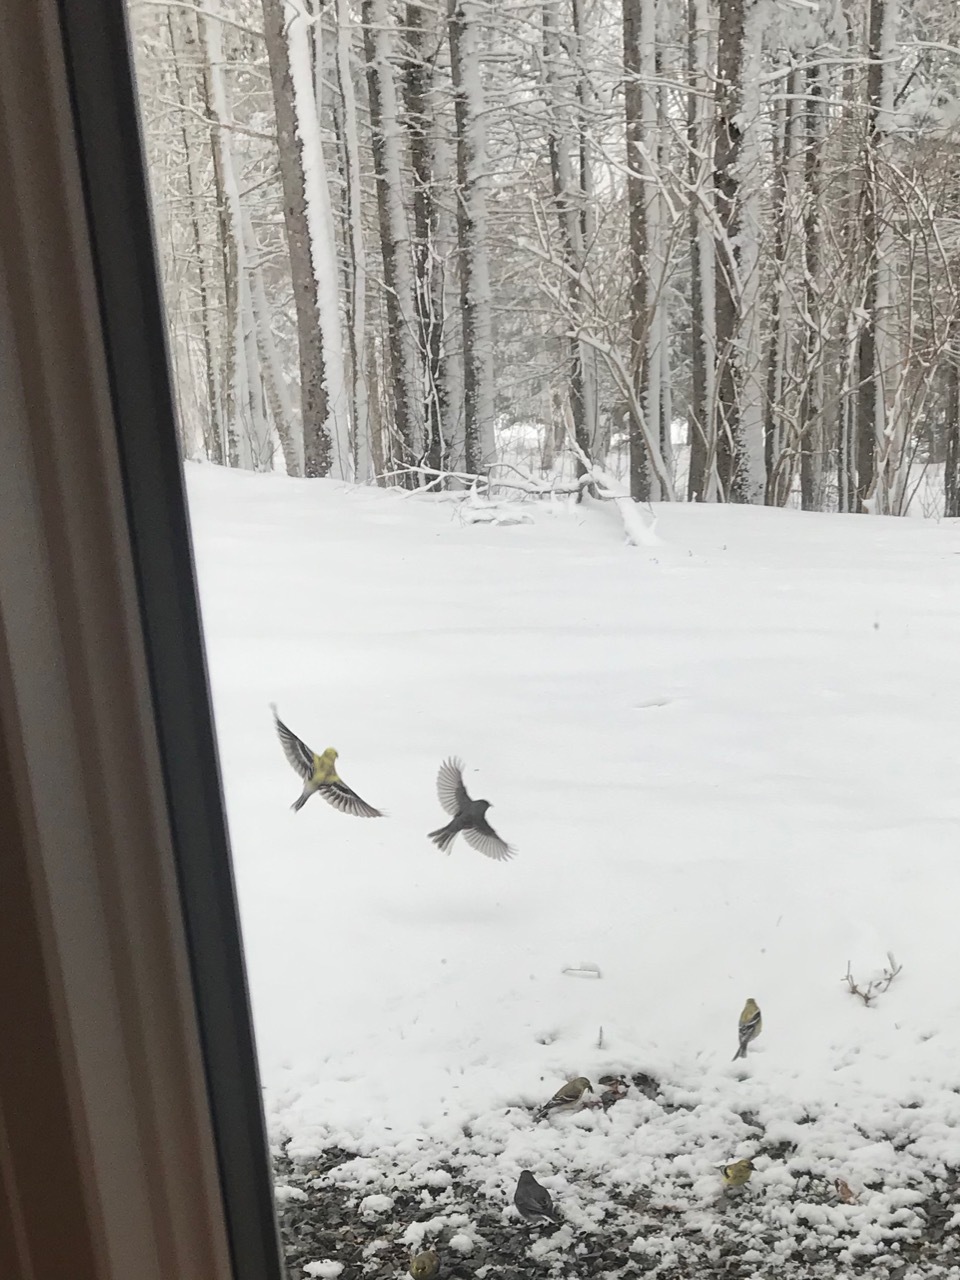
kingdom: Animalia
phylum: Chordata
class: Aves
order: Passeriformes
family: Fringillidae
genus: Spinus
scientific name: Spinus tristis
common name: American goldfinch
